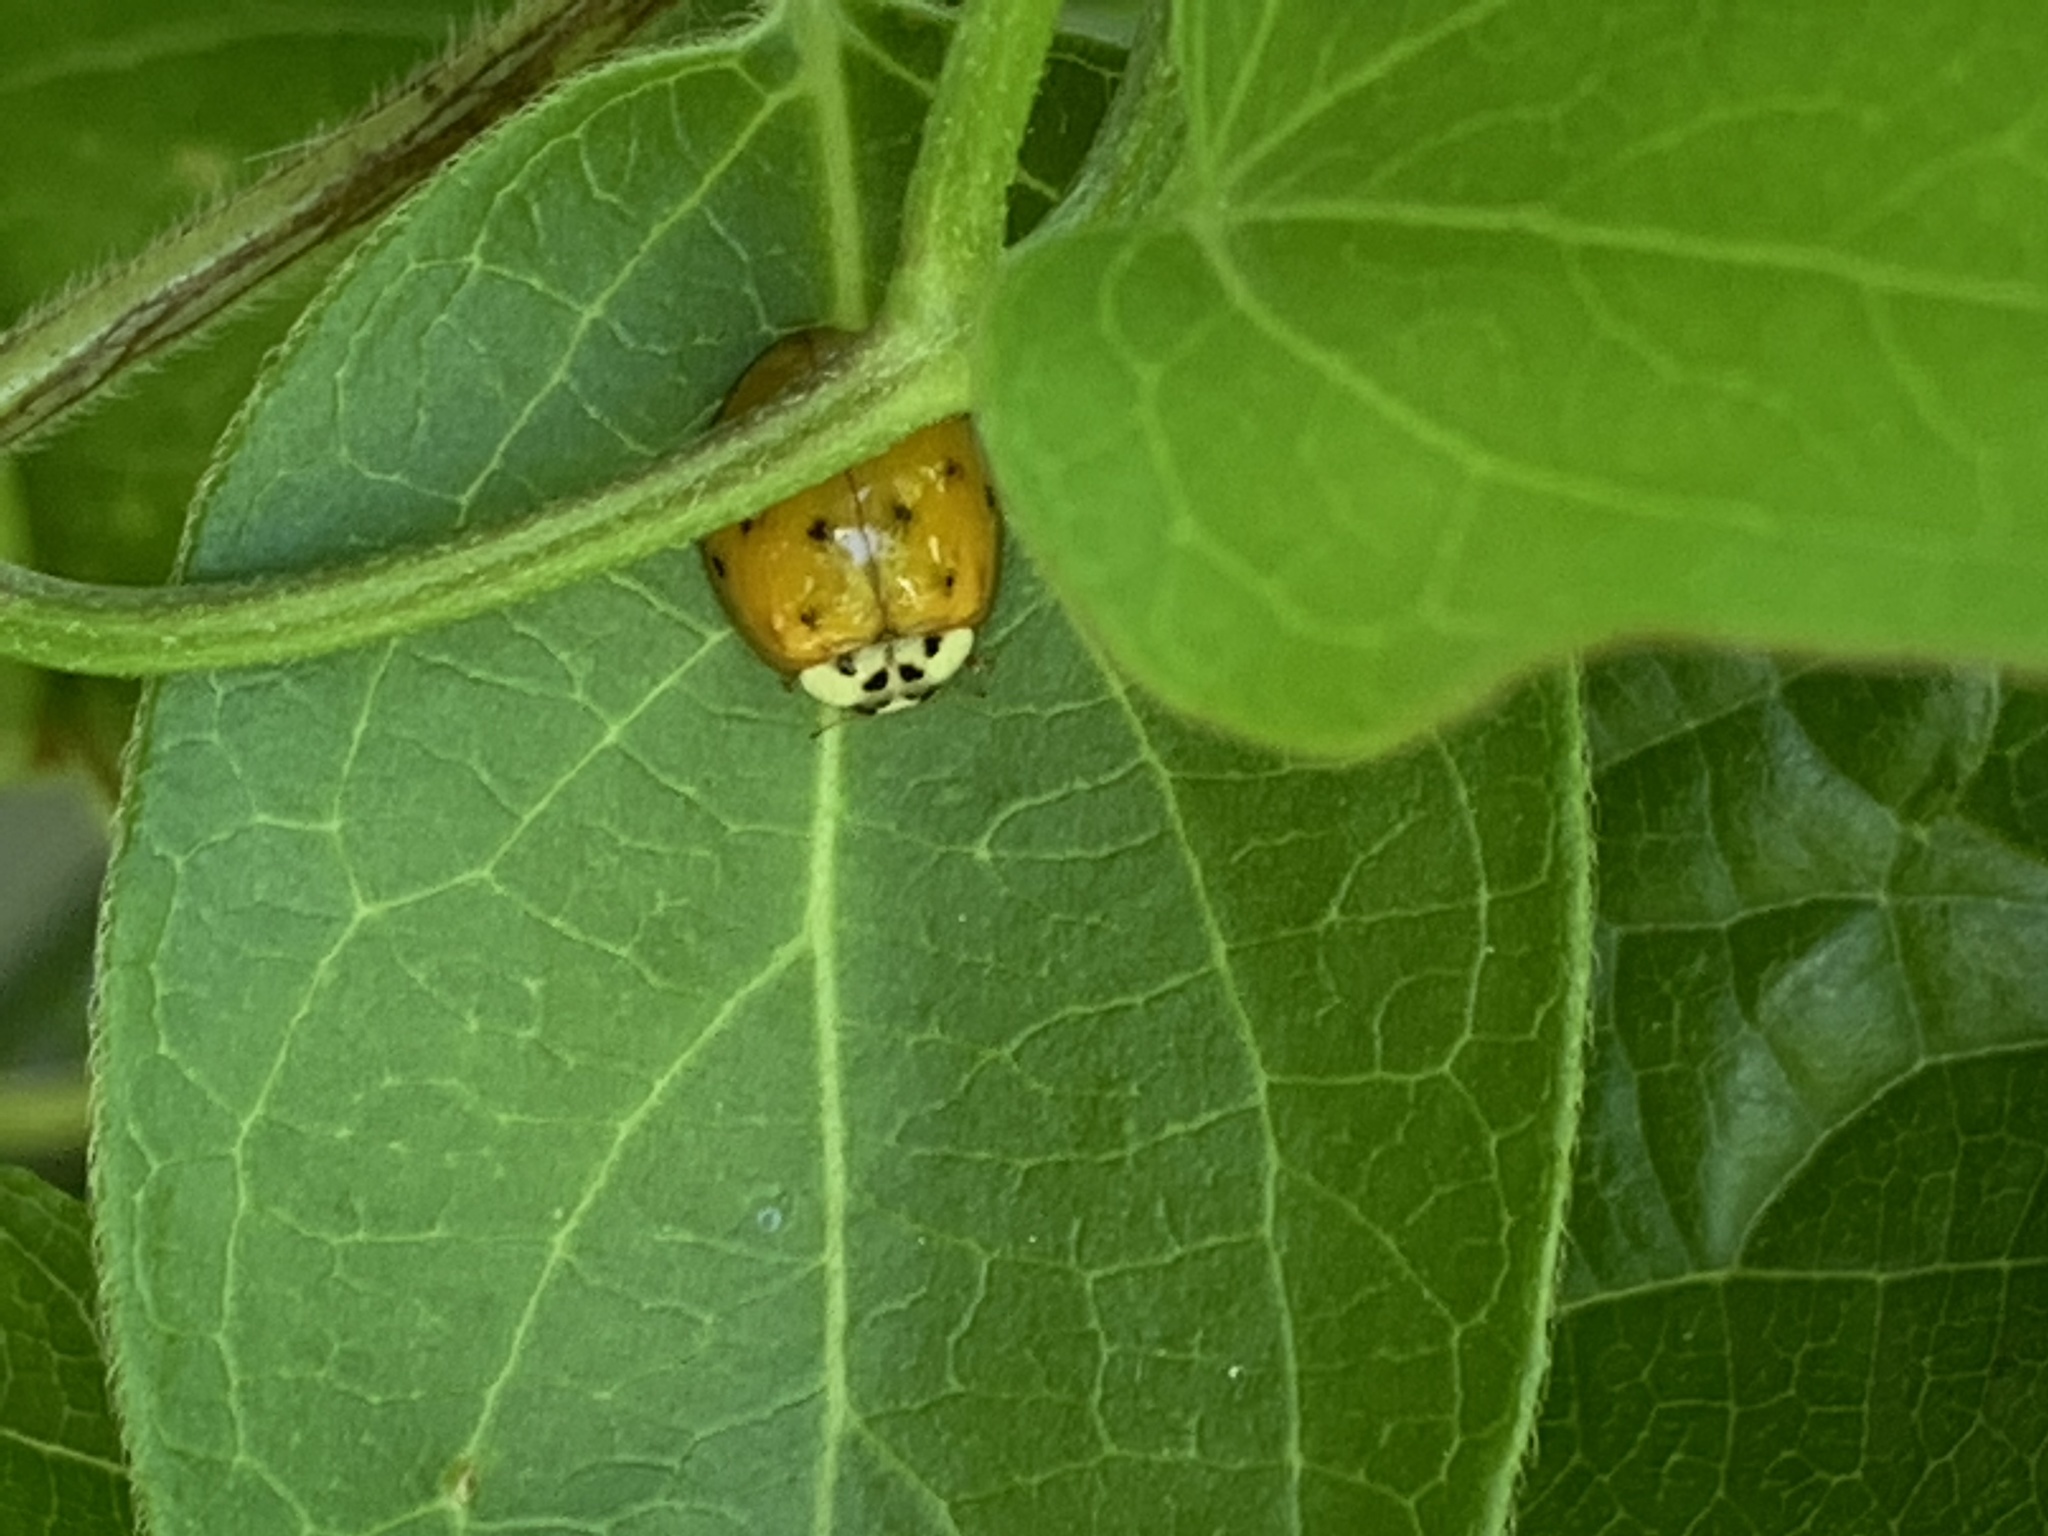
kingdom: Animalia
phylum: Arthropoda
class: Insecta
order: Coleoptera
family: Coccinellidae
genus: Harmonia
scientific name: Harmonia axyridis
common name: Harlequin ladybird
